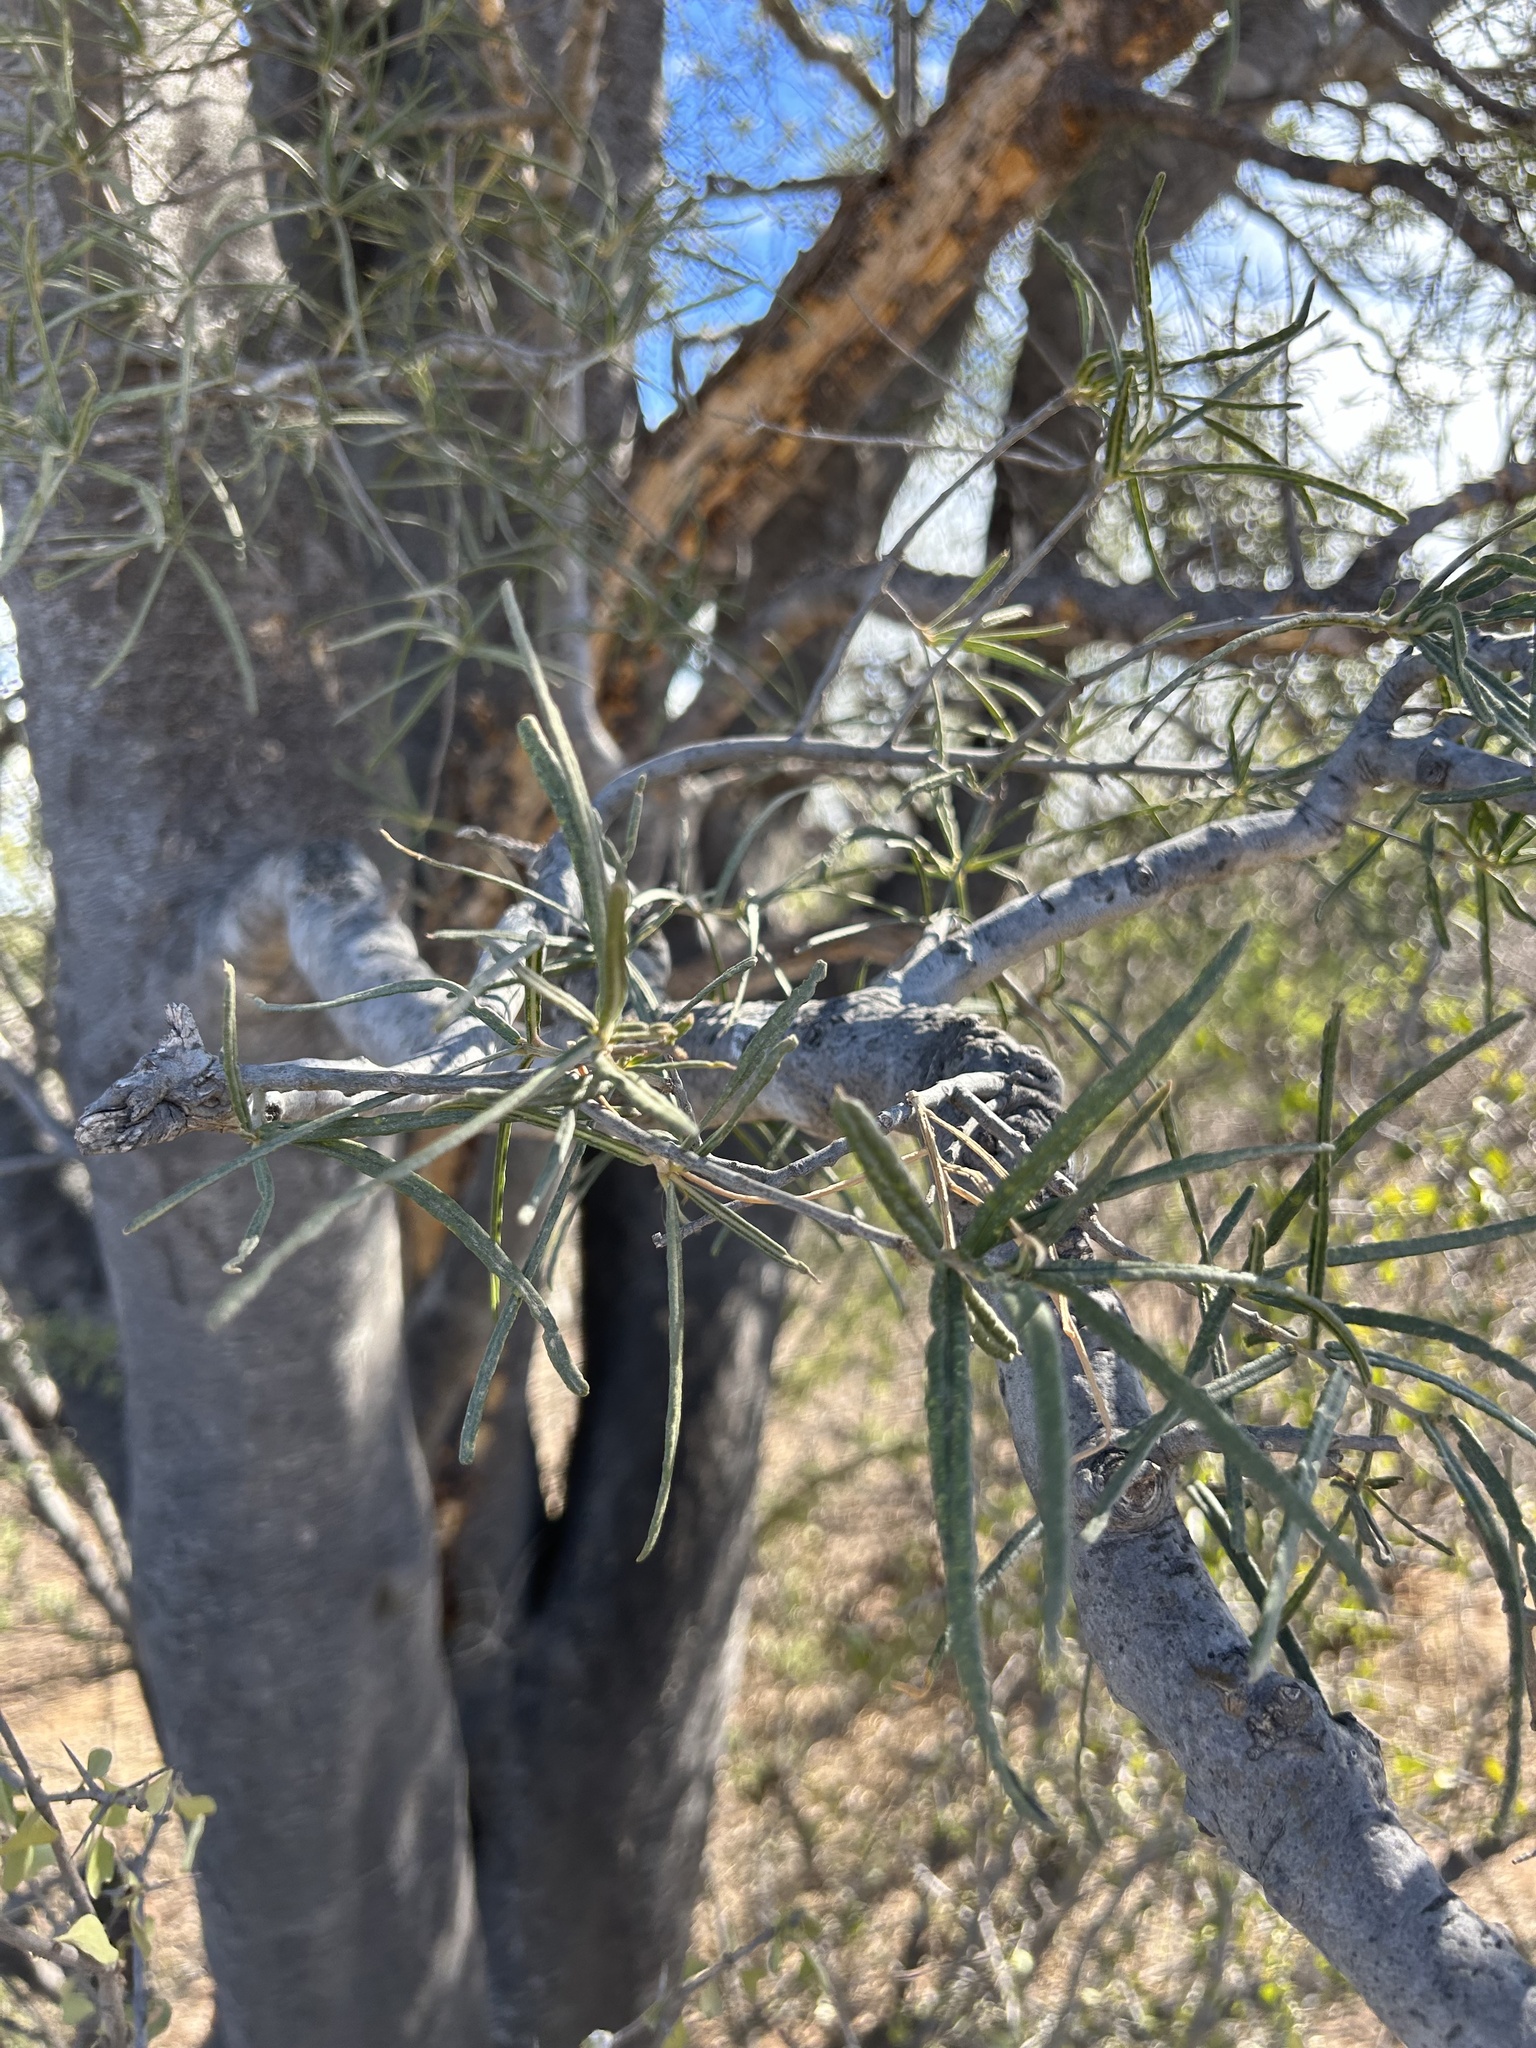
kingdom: Plantae
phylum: Tracheophyta
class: Magnoliopsida
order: Brassicales
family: Stixaceae
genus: Forchhammeria
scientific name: Forchhammeria watsonii
